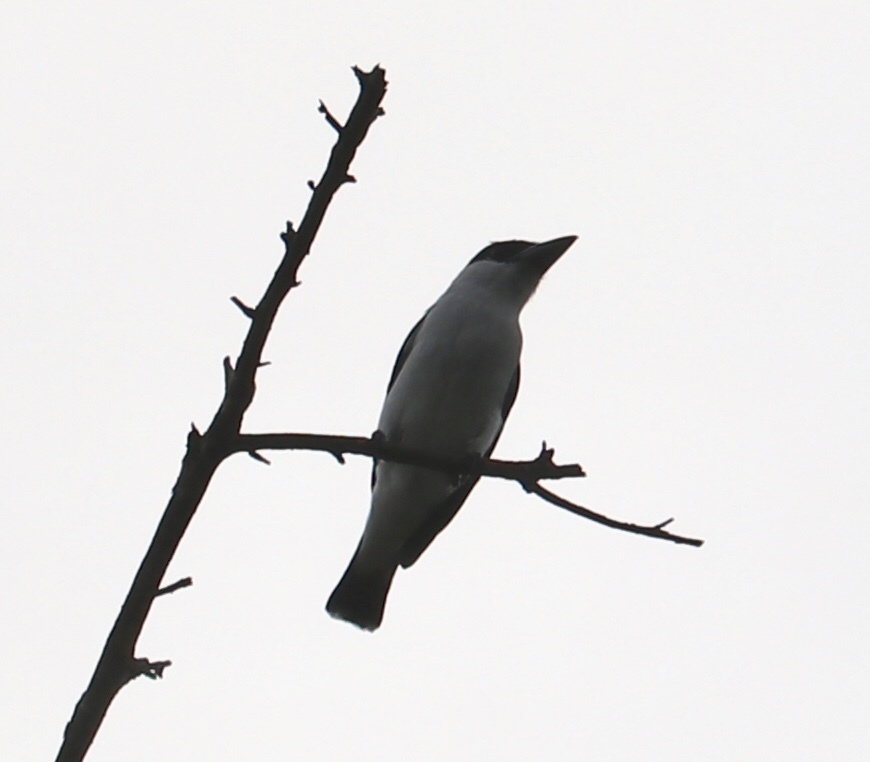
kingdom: Animalia
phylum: Chordata
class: Aves
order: Passeriformes
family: Cotingidae
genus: Tityra
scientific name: Tityra inquisitor
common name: Black-crowned tityra
